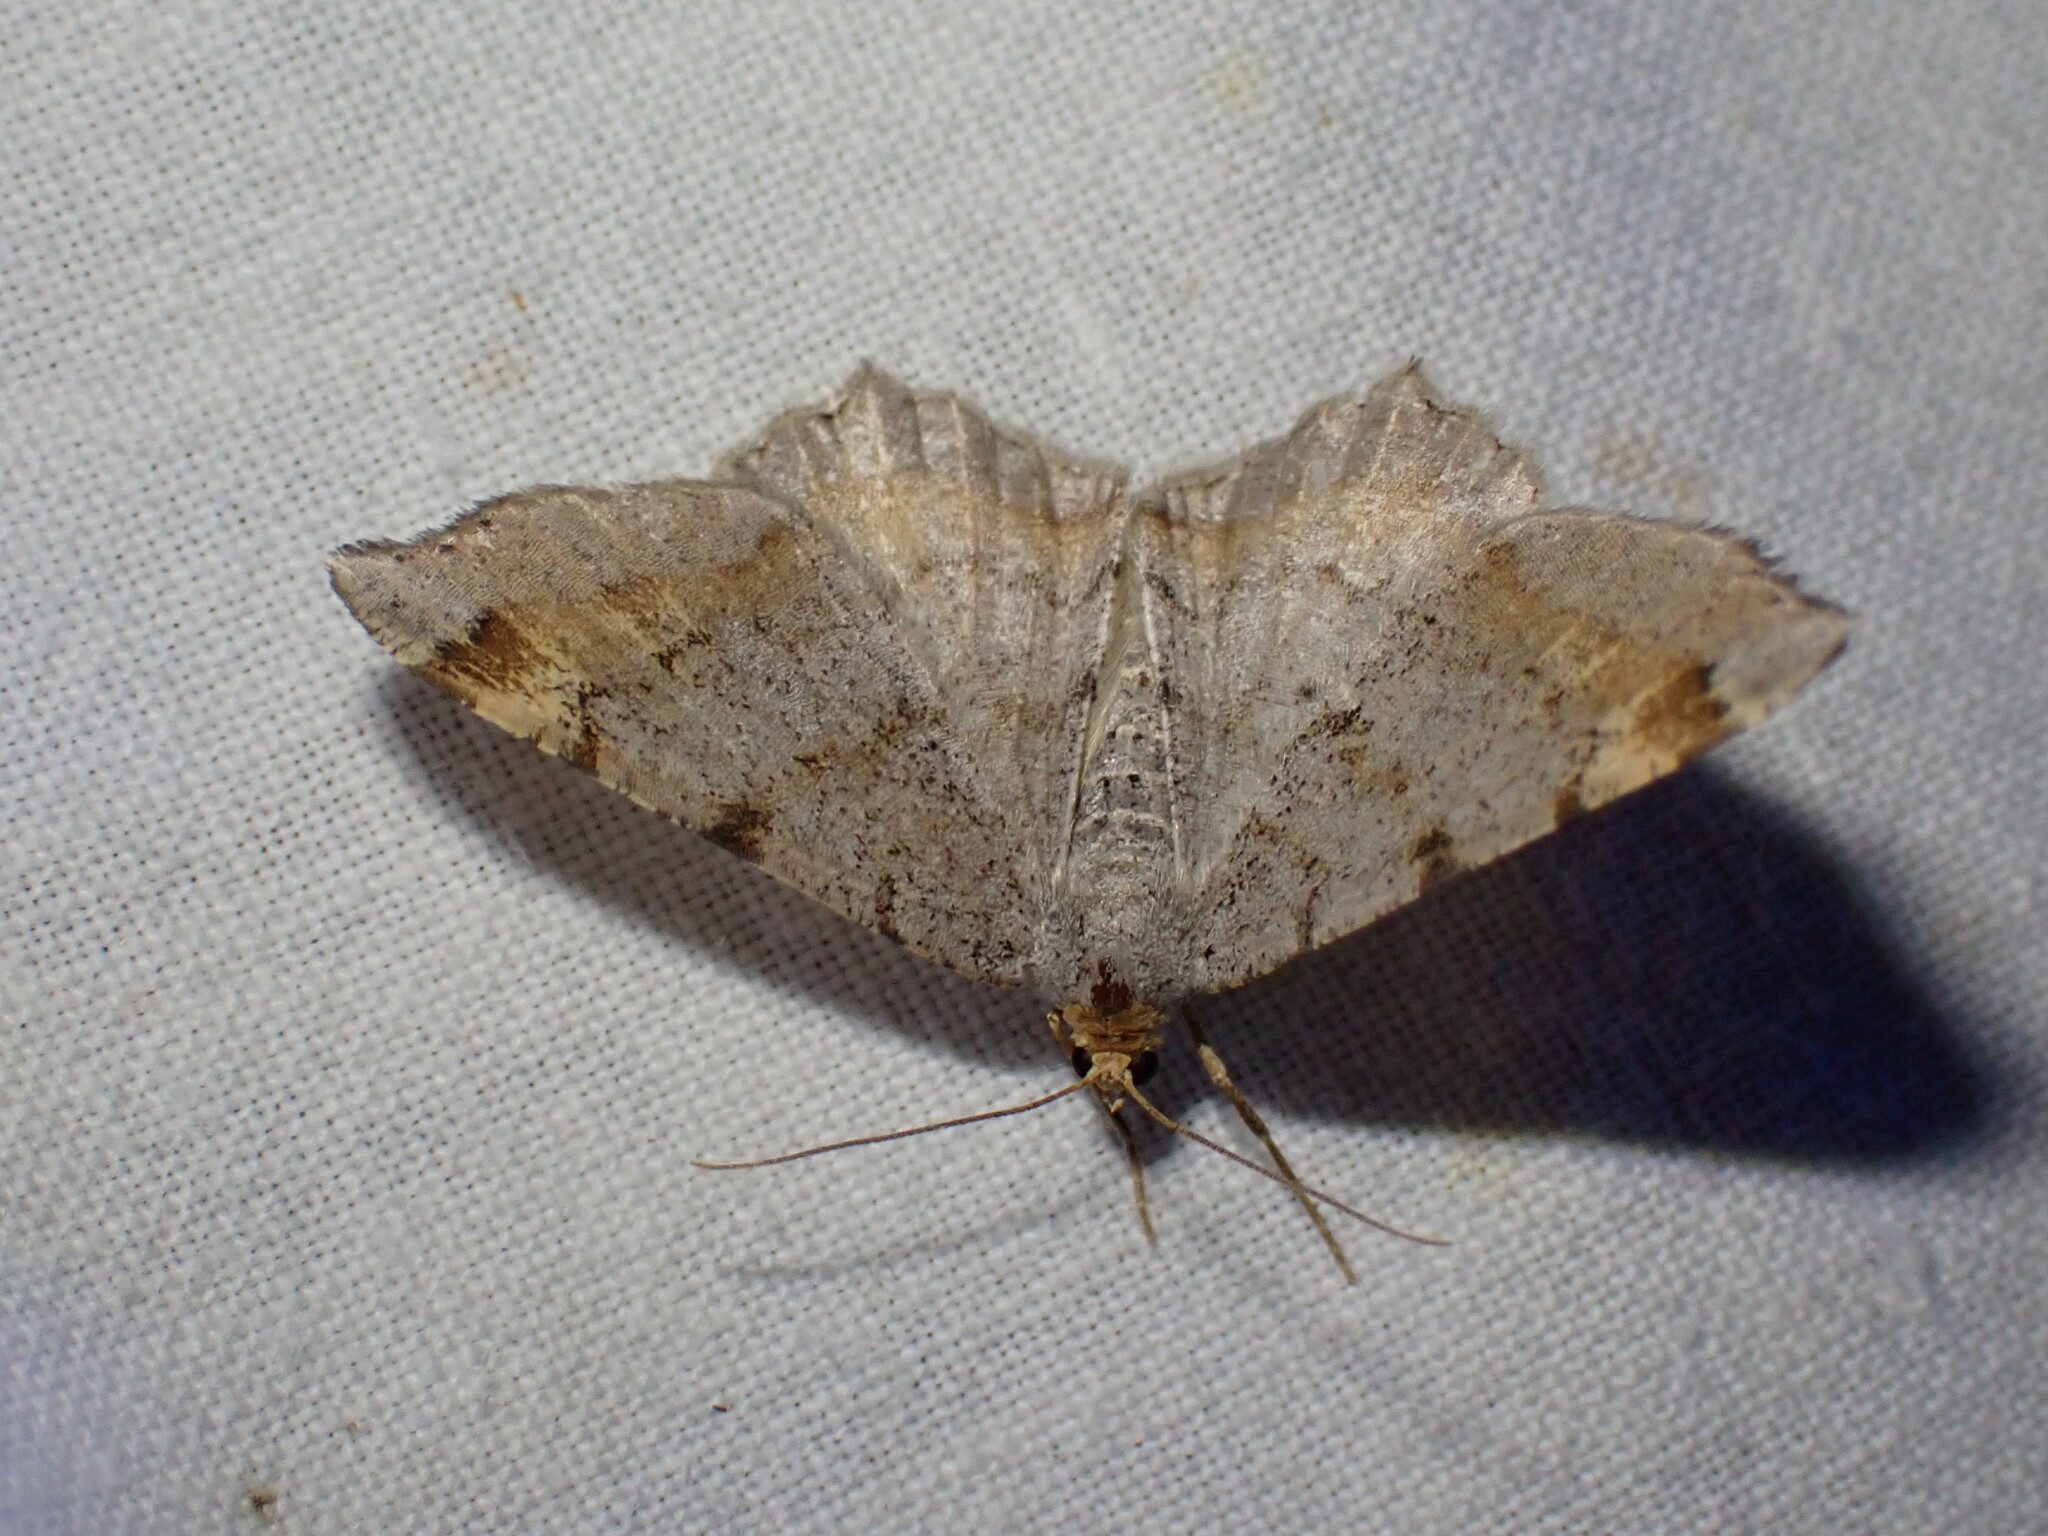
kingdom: Animalia
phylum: Arthropoda
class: Insecta
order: Lepidoptera
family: Geometridae
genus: Macaria
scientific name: Macaria liturata
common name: Tawny-barred angle
